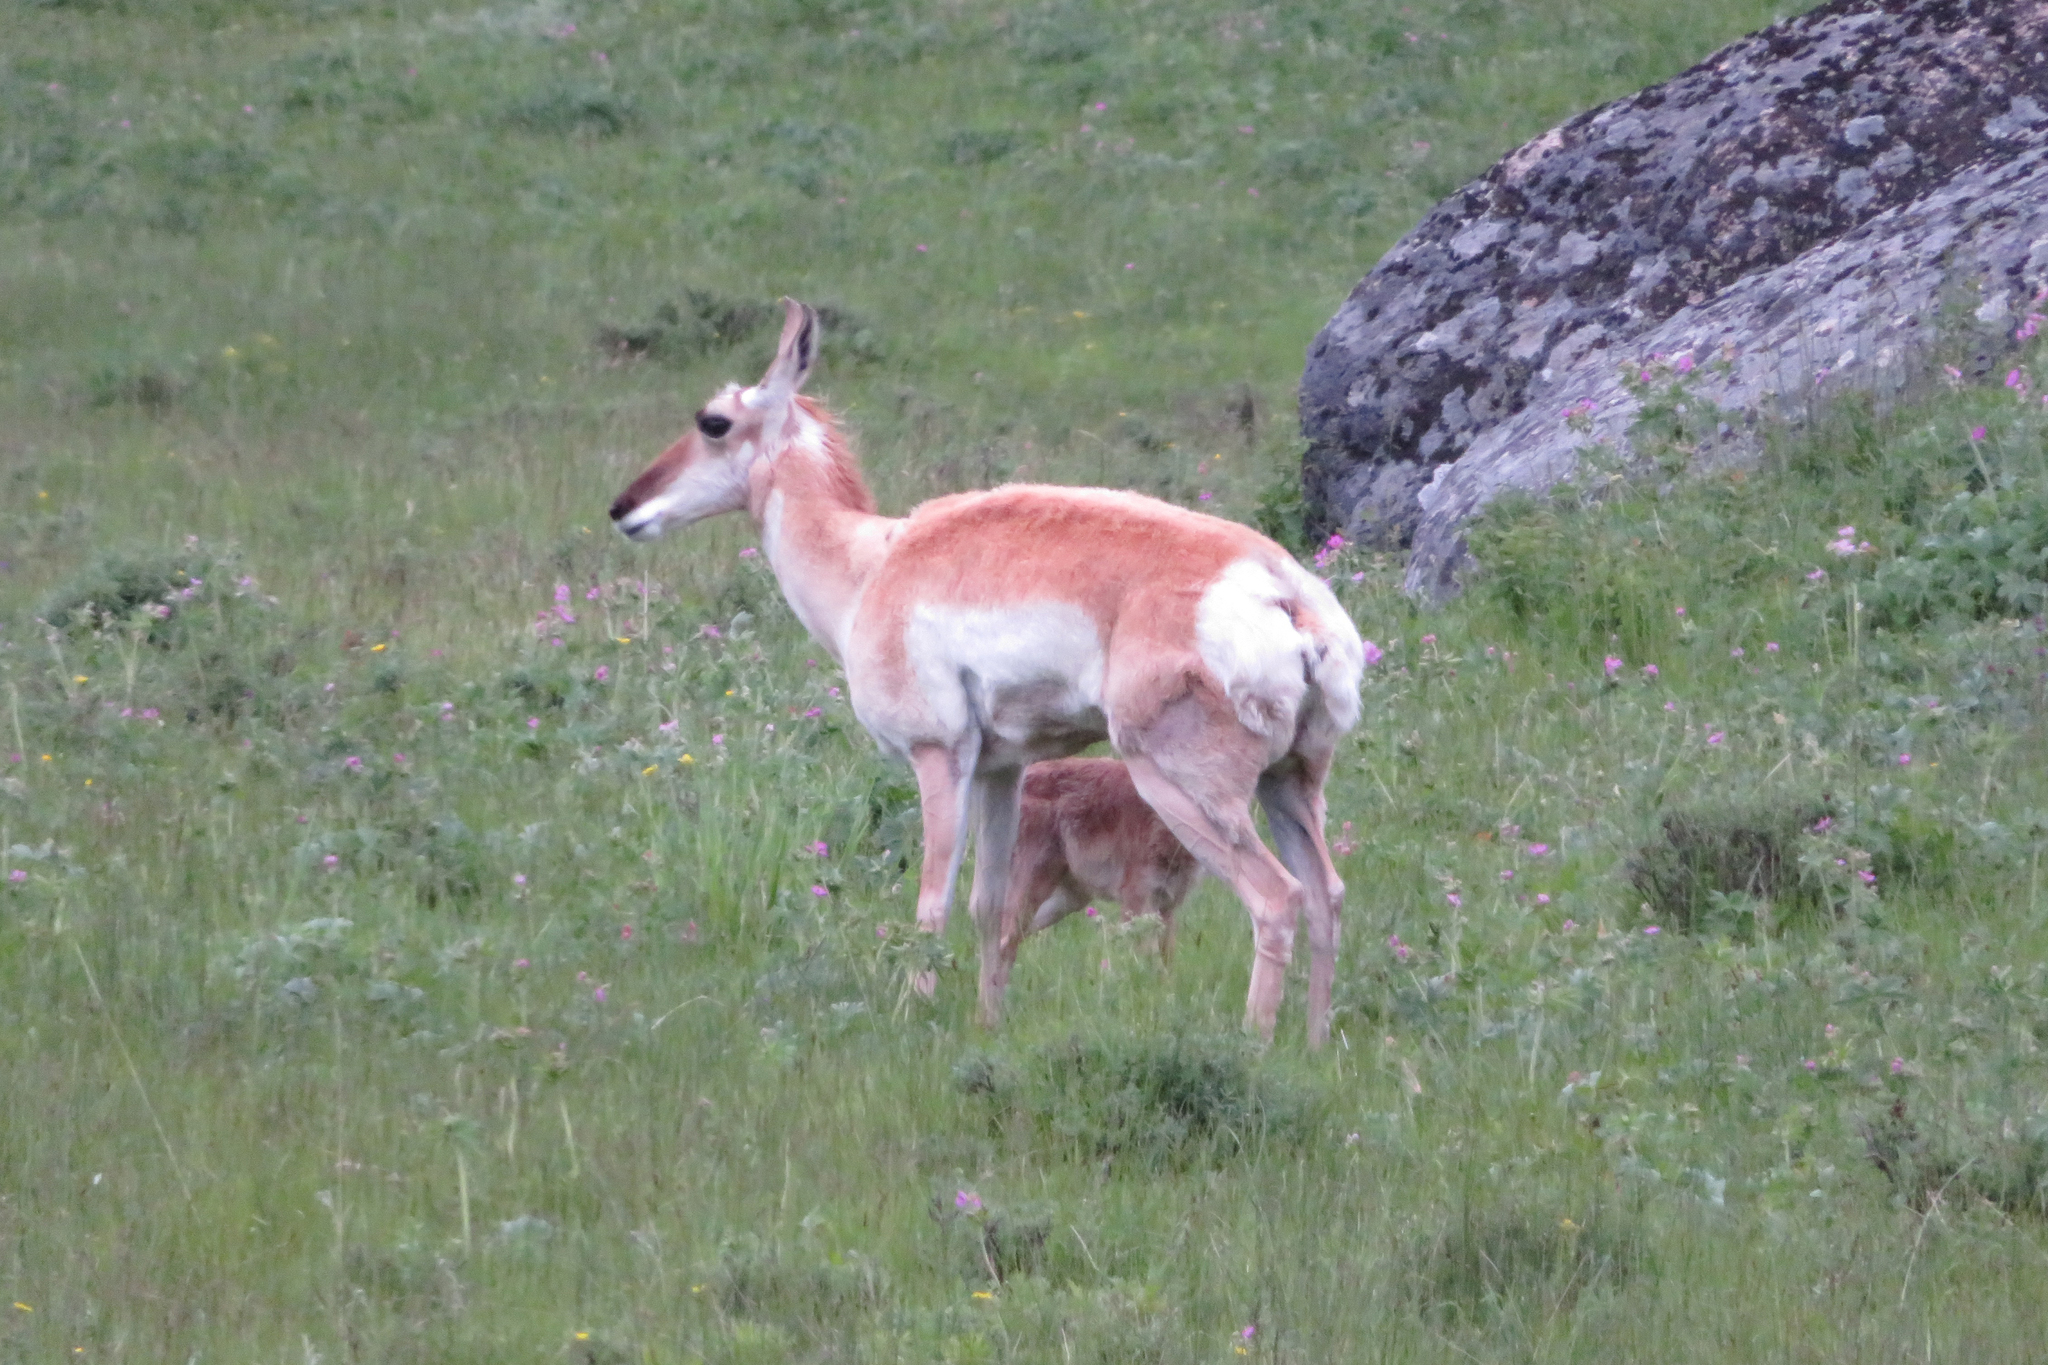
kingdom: Animalia
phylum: Chordata
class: Mammalia
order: Artiodactyla
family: Antilocapridae
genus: Antilocapra
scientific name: Antilocapra americana
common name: Pronghorn
